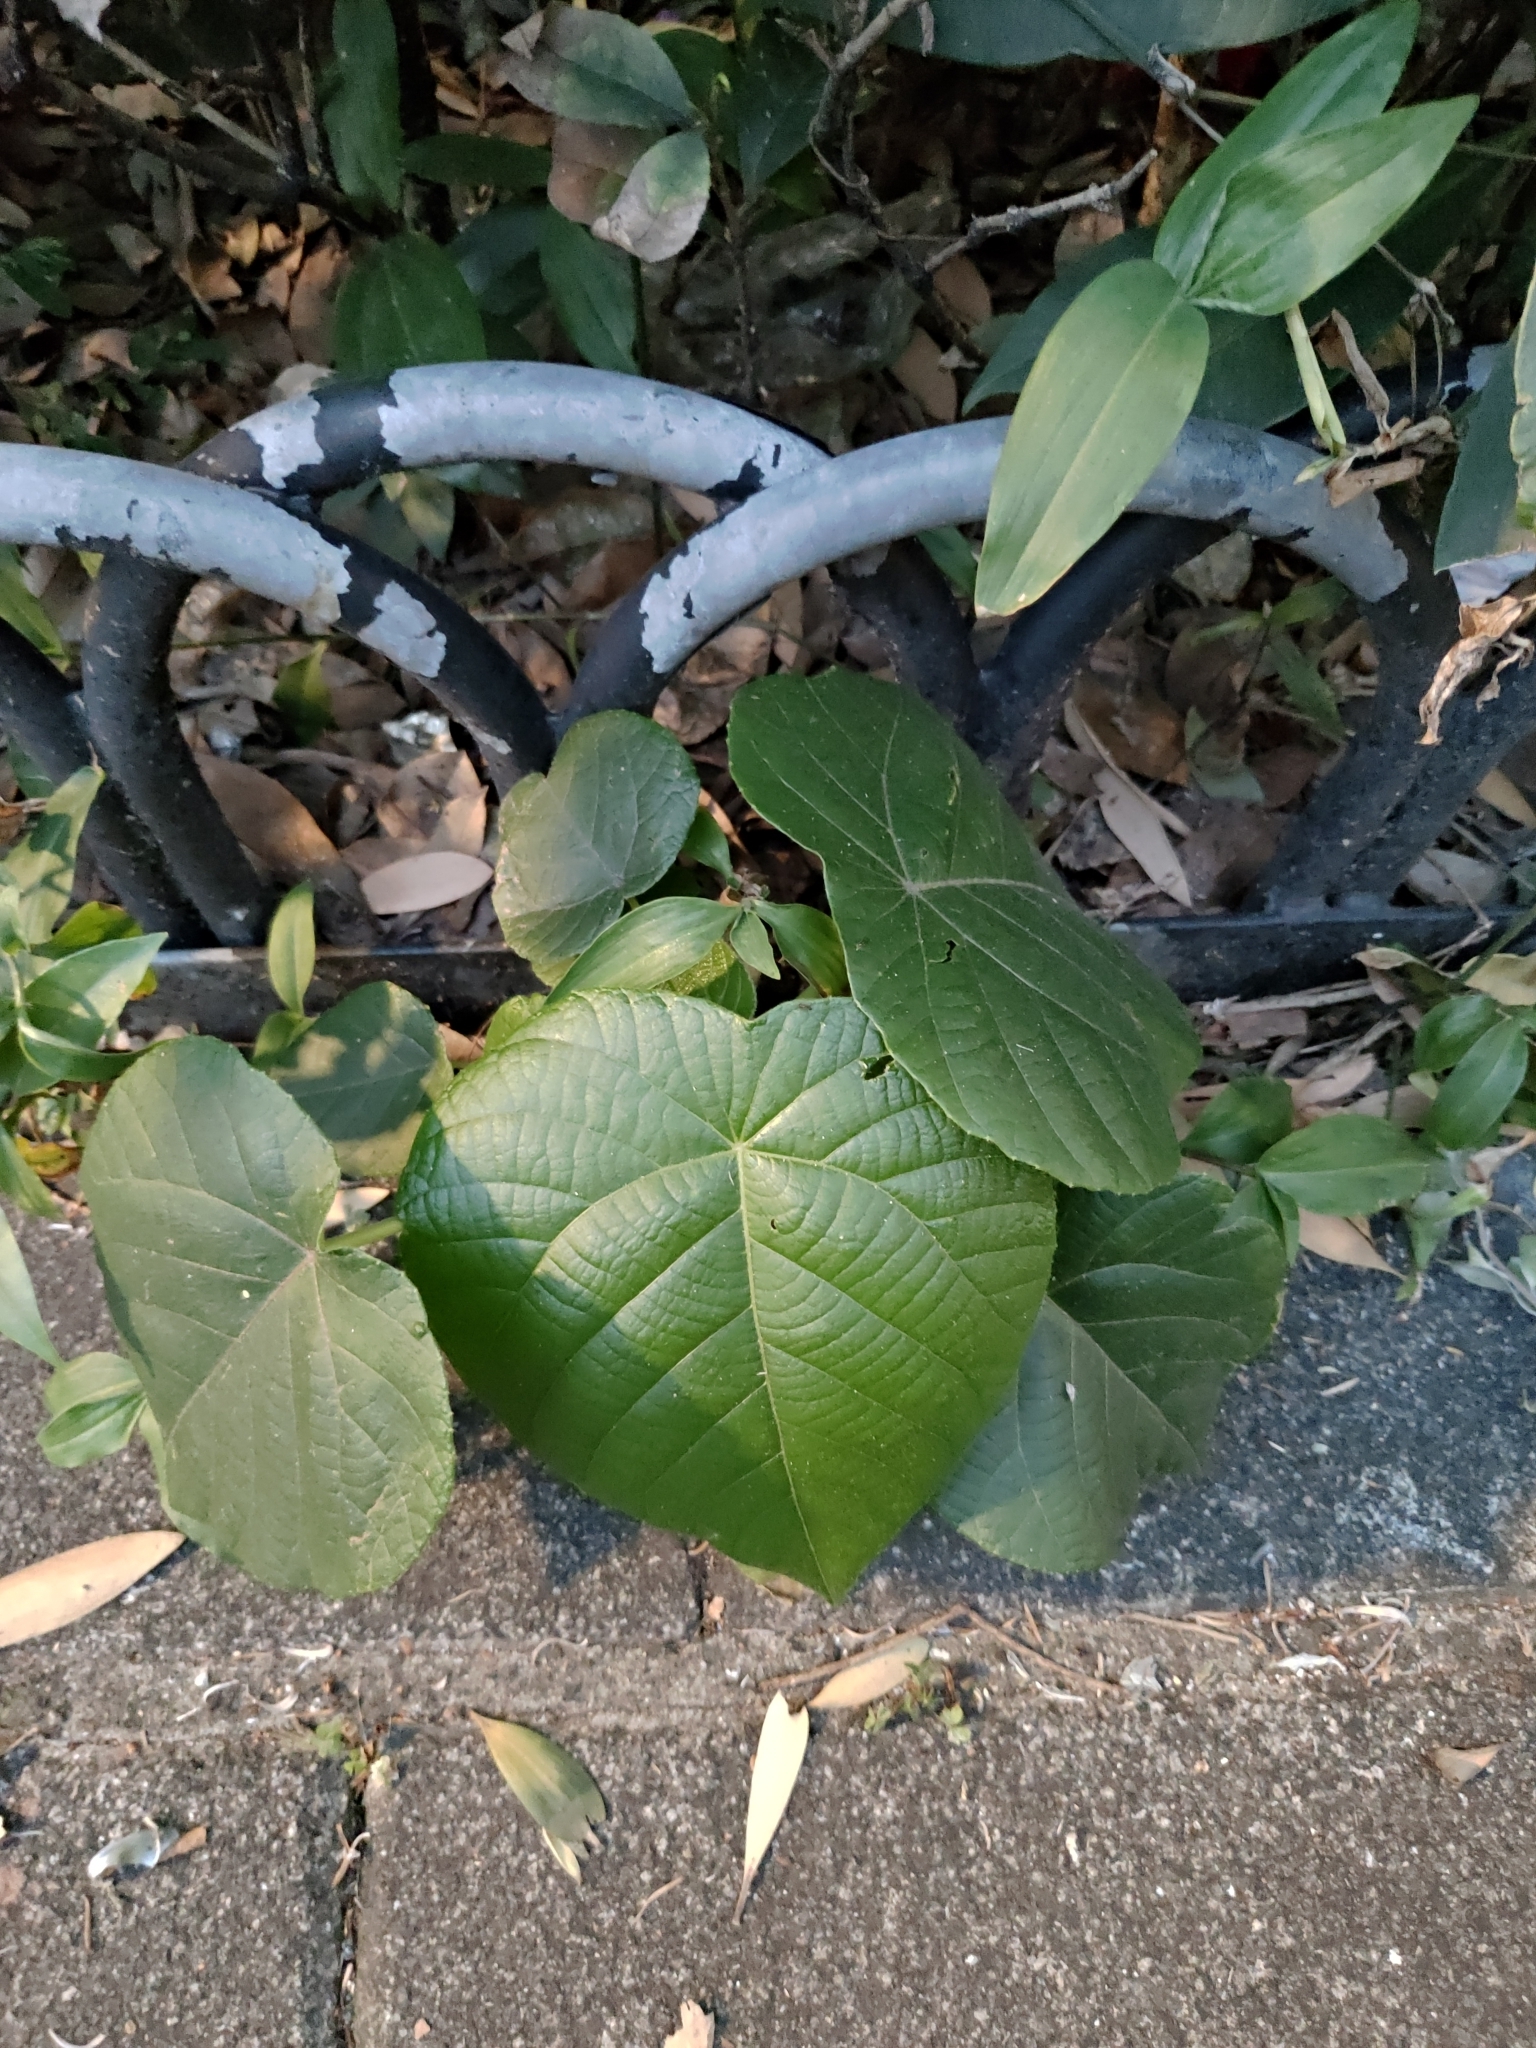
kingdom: Plantae
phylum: Tracheophyta
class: Magnoliopsida
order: Malpighiales
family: Euphorbiaceae
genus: Macaranga
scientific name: Macaranga tanarius
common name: Parasol leaf tree
